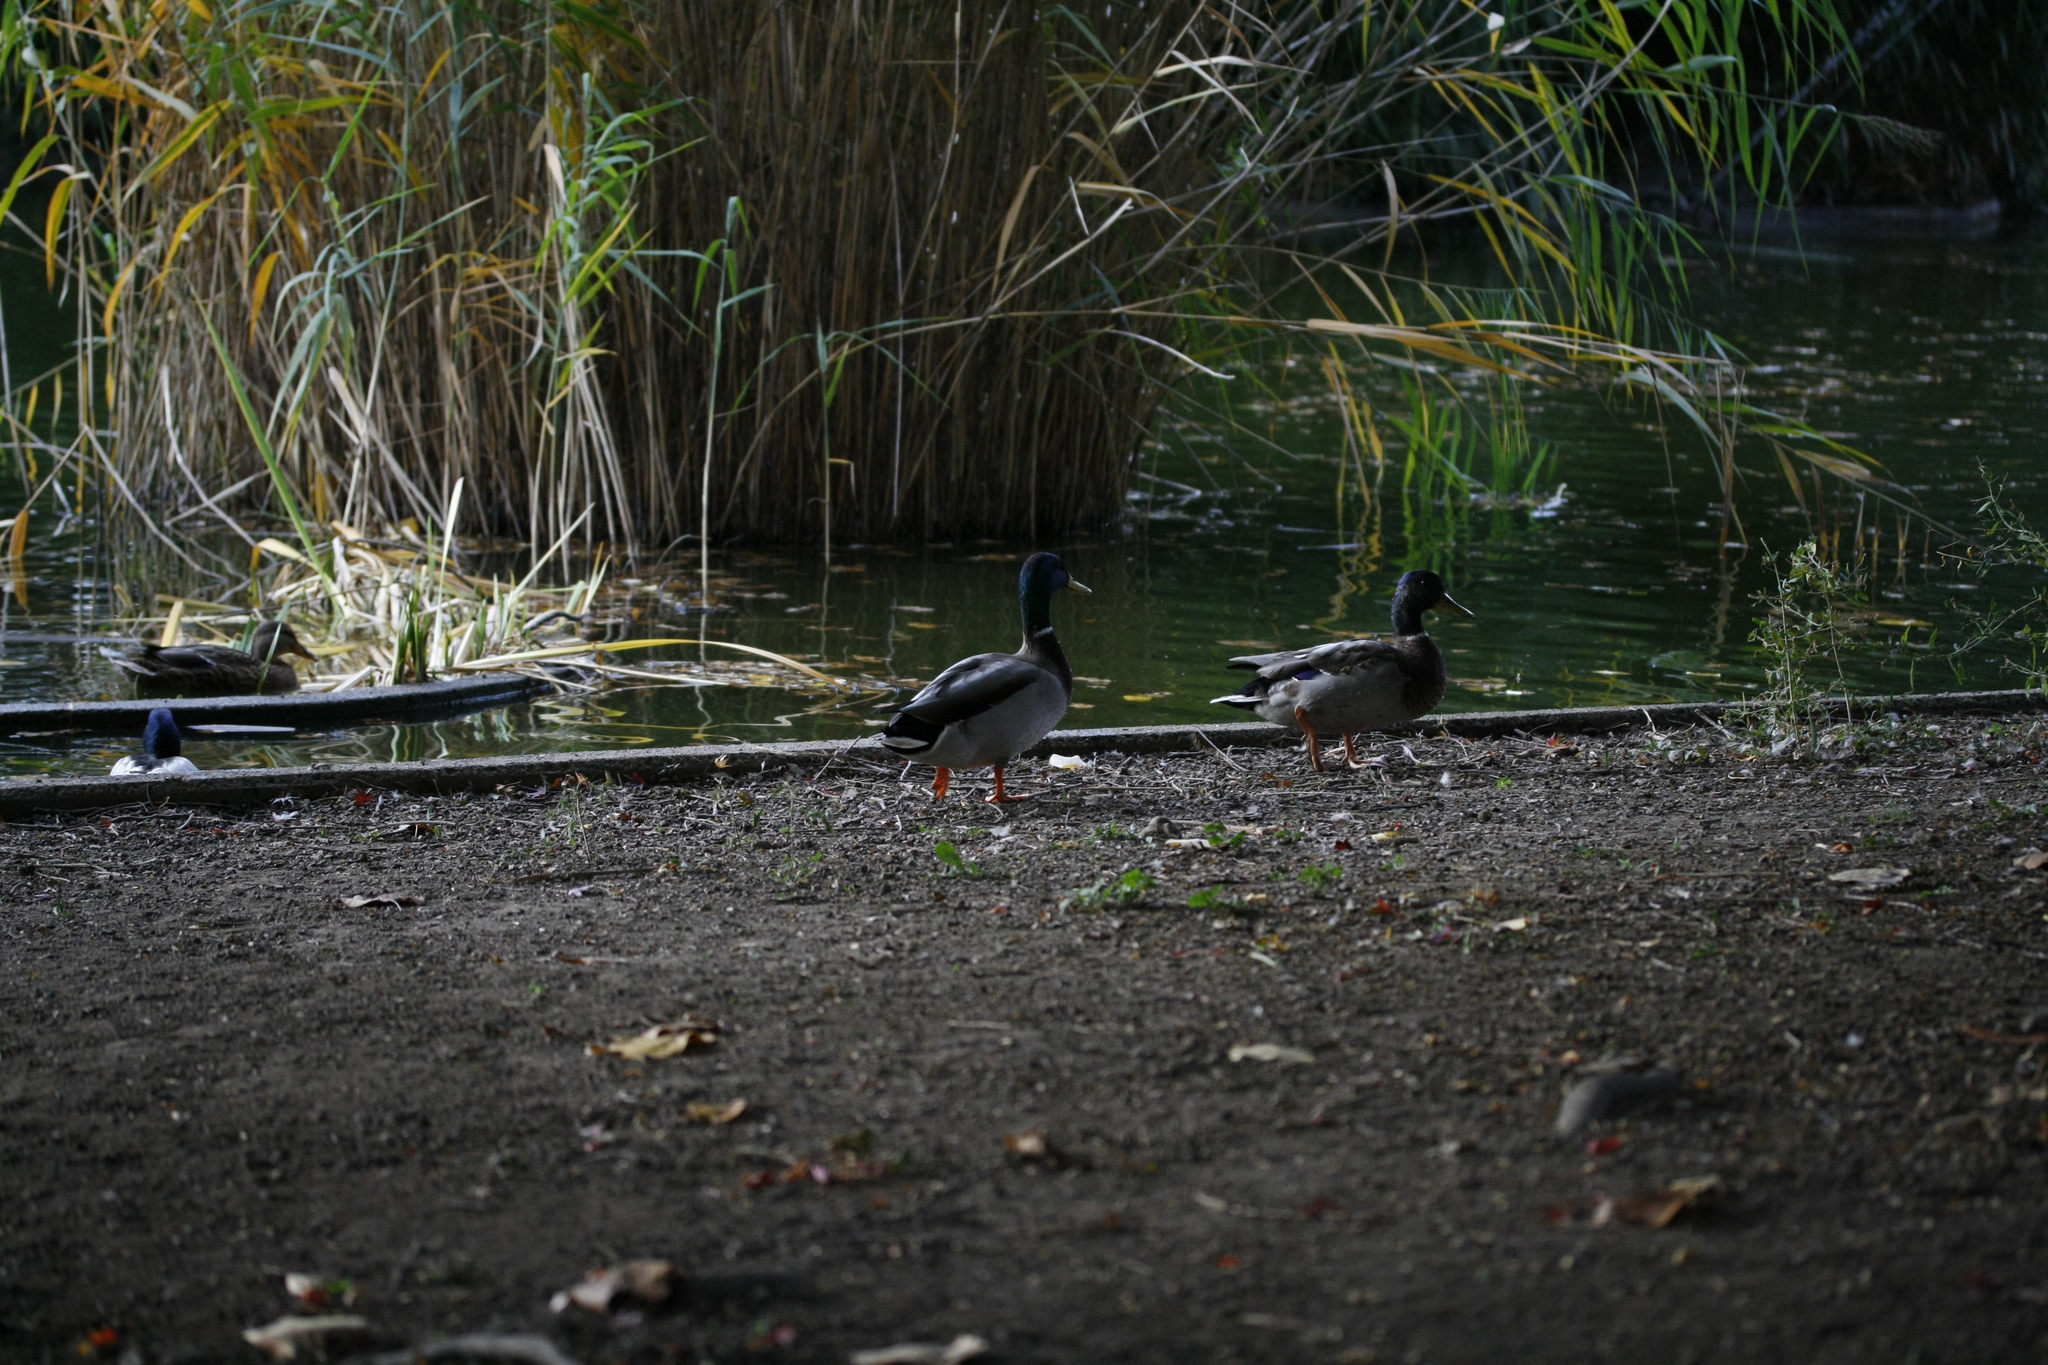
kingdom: Animalia
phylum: Chordata
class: Aves
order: Anseriformes
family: Anatidae
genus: Anas
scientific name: Anas platyrhynchos
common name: Mallard
